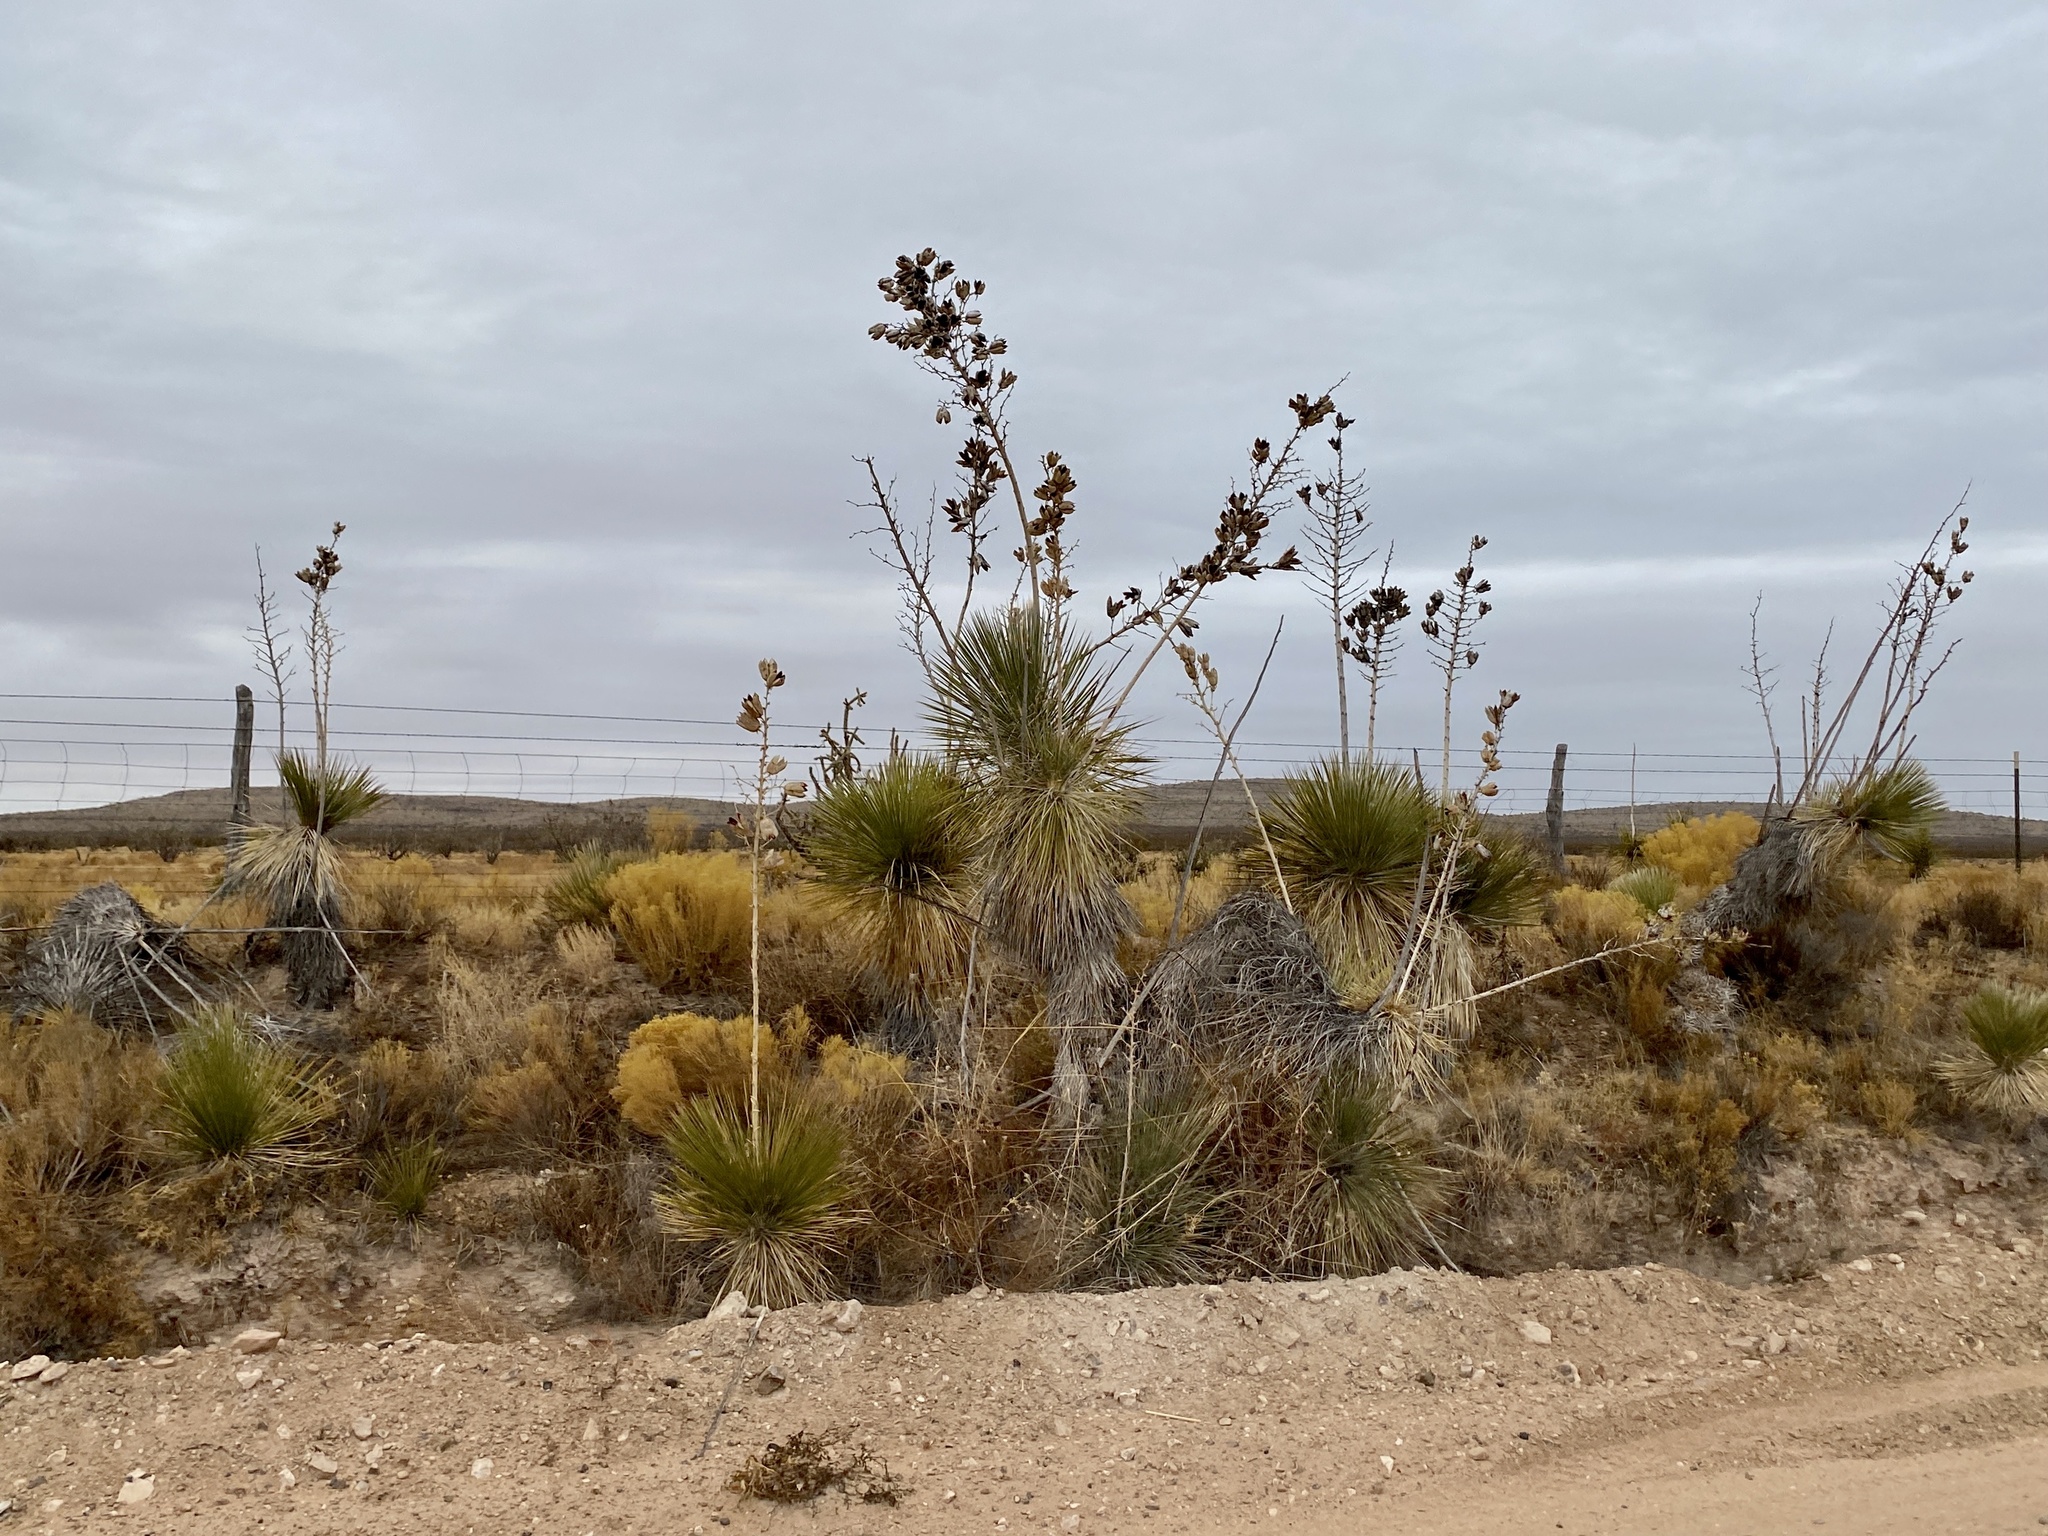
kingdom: Plantae
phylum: Tracheophyta
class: Liliopsida
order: Asparagales
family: Asparagaceae
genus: Yucca
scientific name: Yucca elata
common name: Palmella
